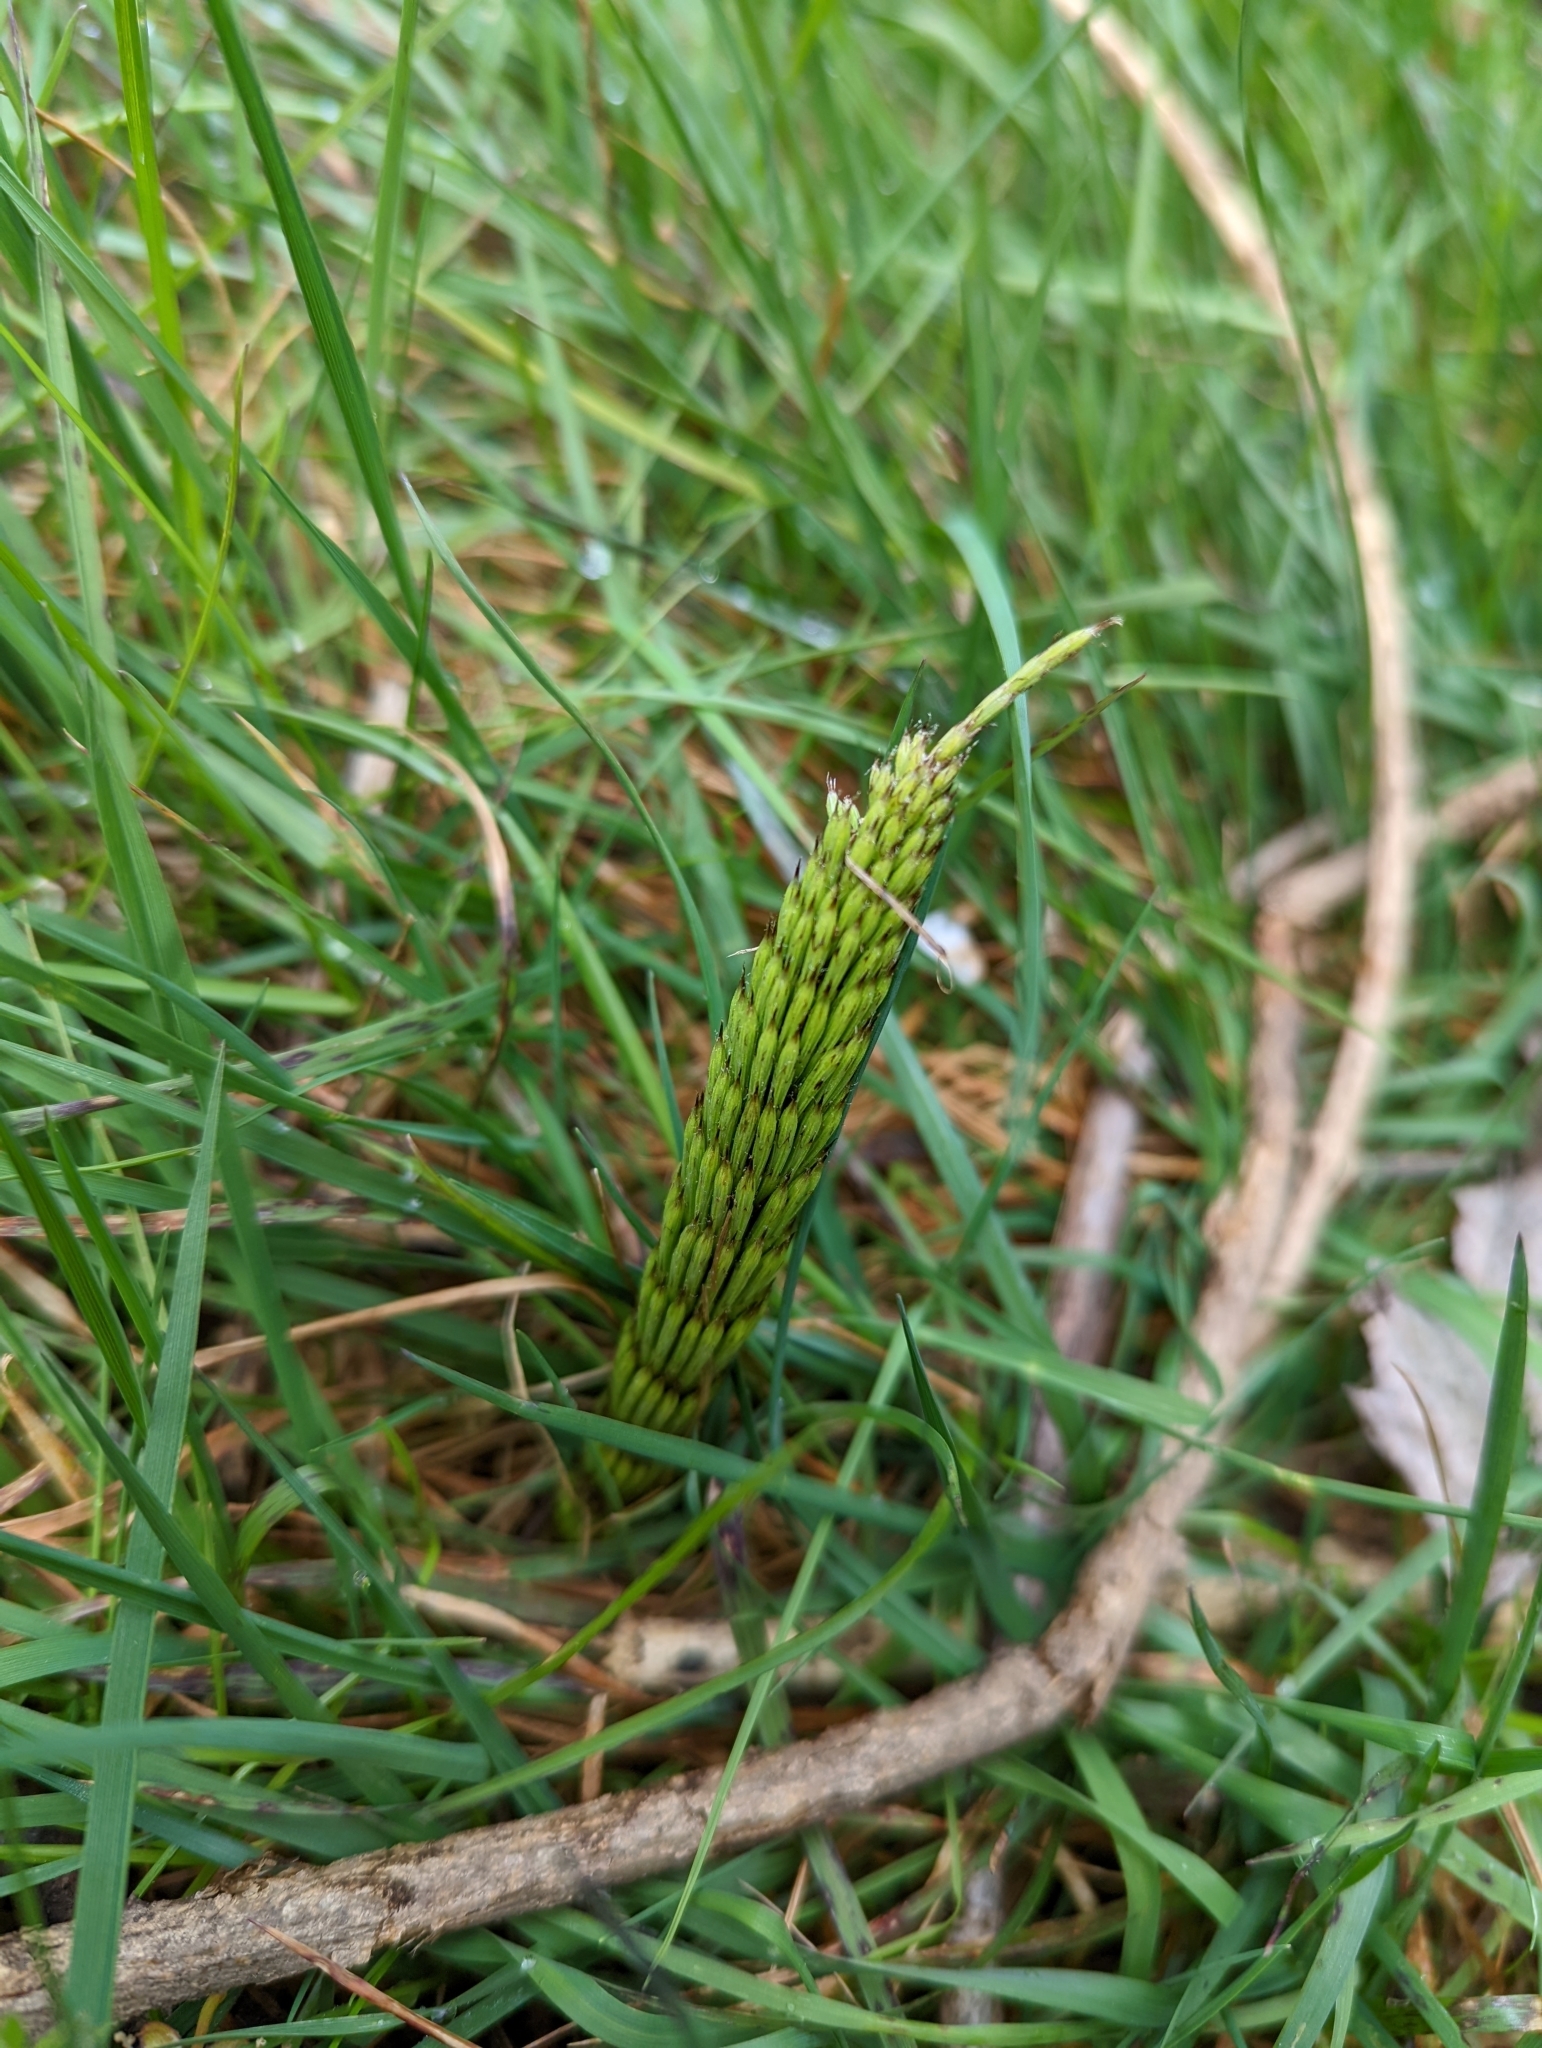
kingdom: Plantae
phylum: Tracheophyta
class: Polypodiopsida
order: Equisetales
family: Equisetaceae
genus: Equisetum
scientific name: Equisetum braunii
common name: Braun's horsetail
